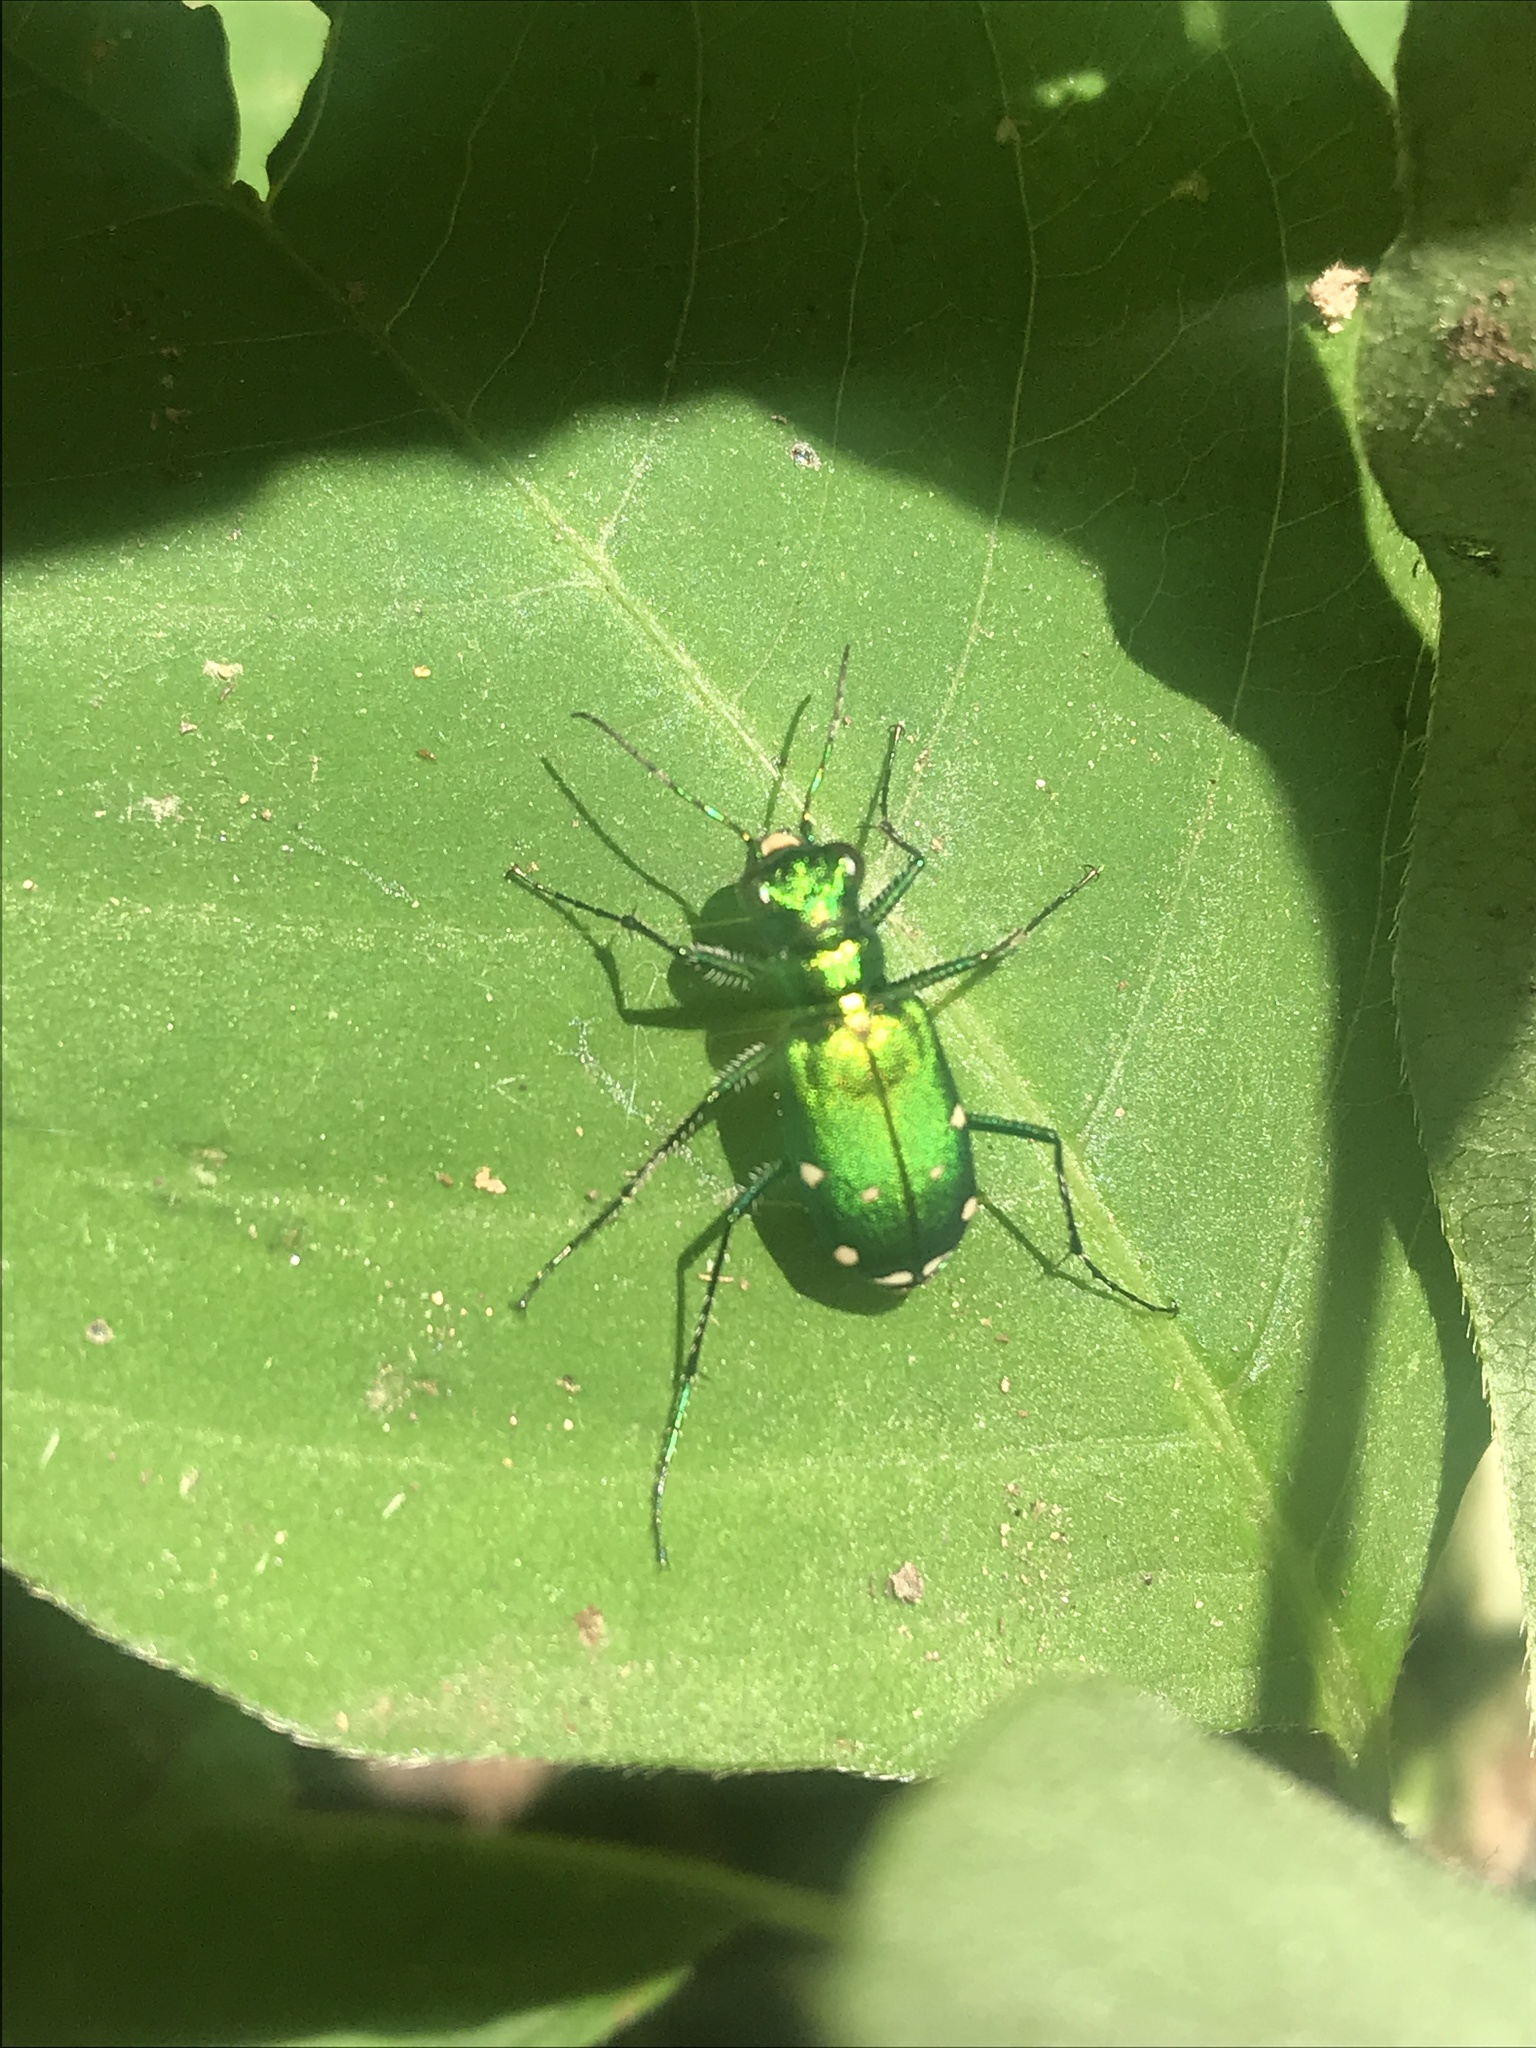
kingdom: Animalia
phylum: Arthropoda
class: Insecta
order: Coleoptera
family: Carabidae
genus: Cicindela
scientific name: Cicindela sexguttata
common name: Six-spotted tiger beetle
